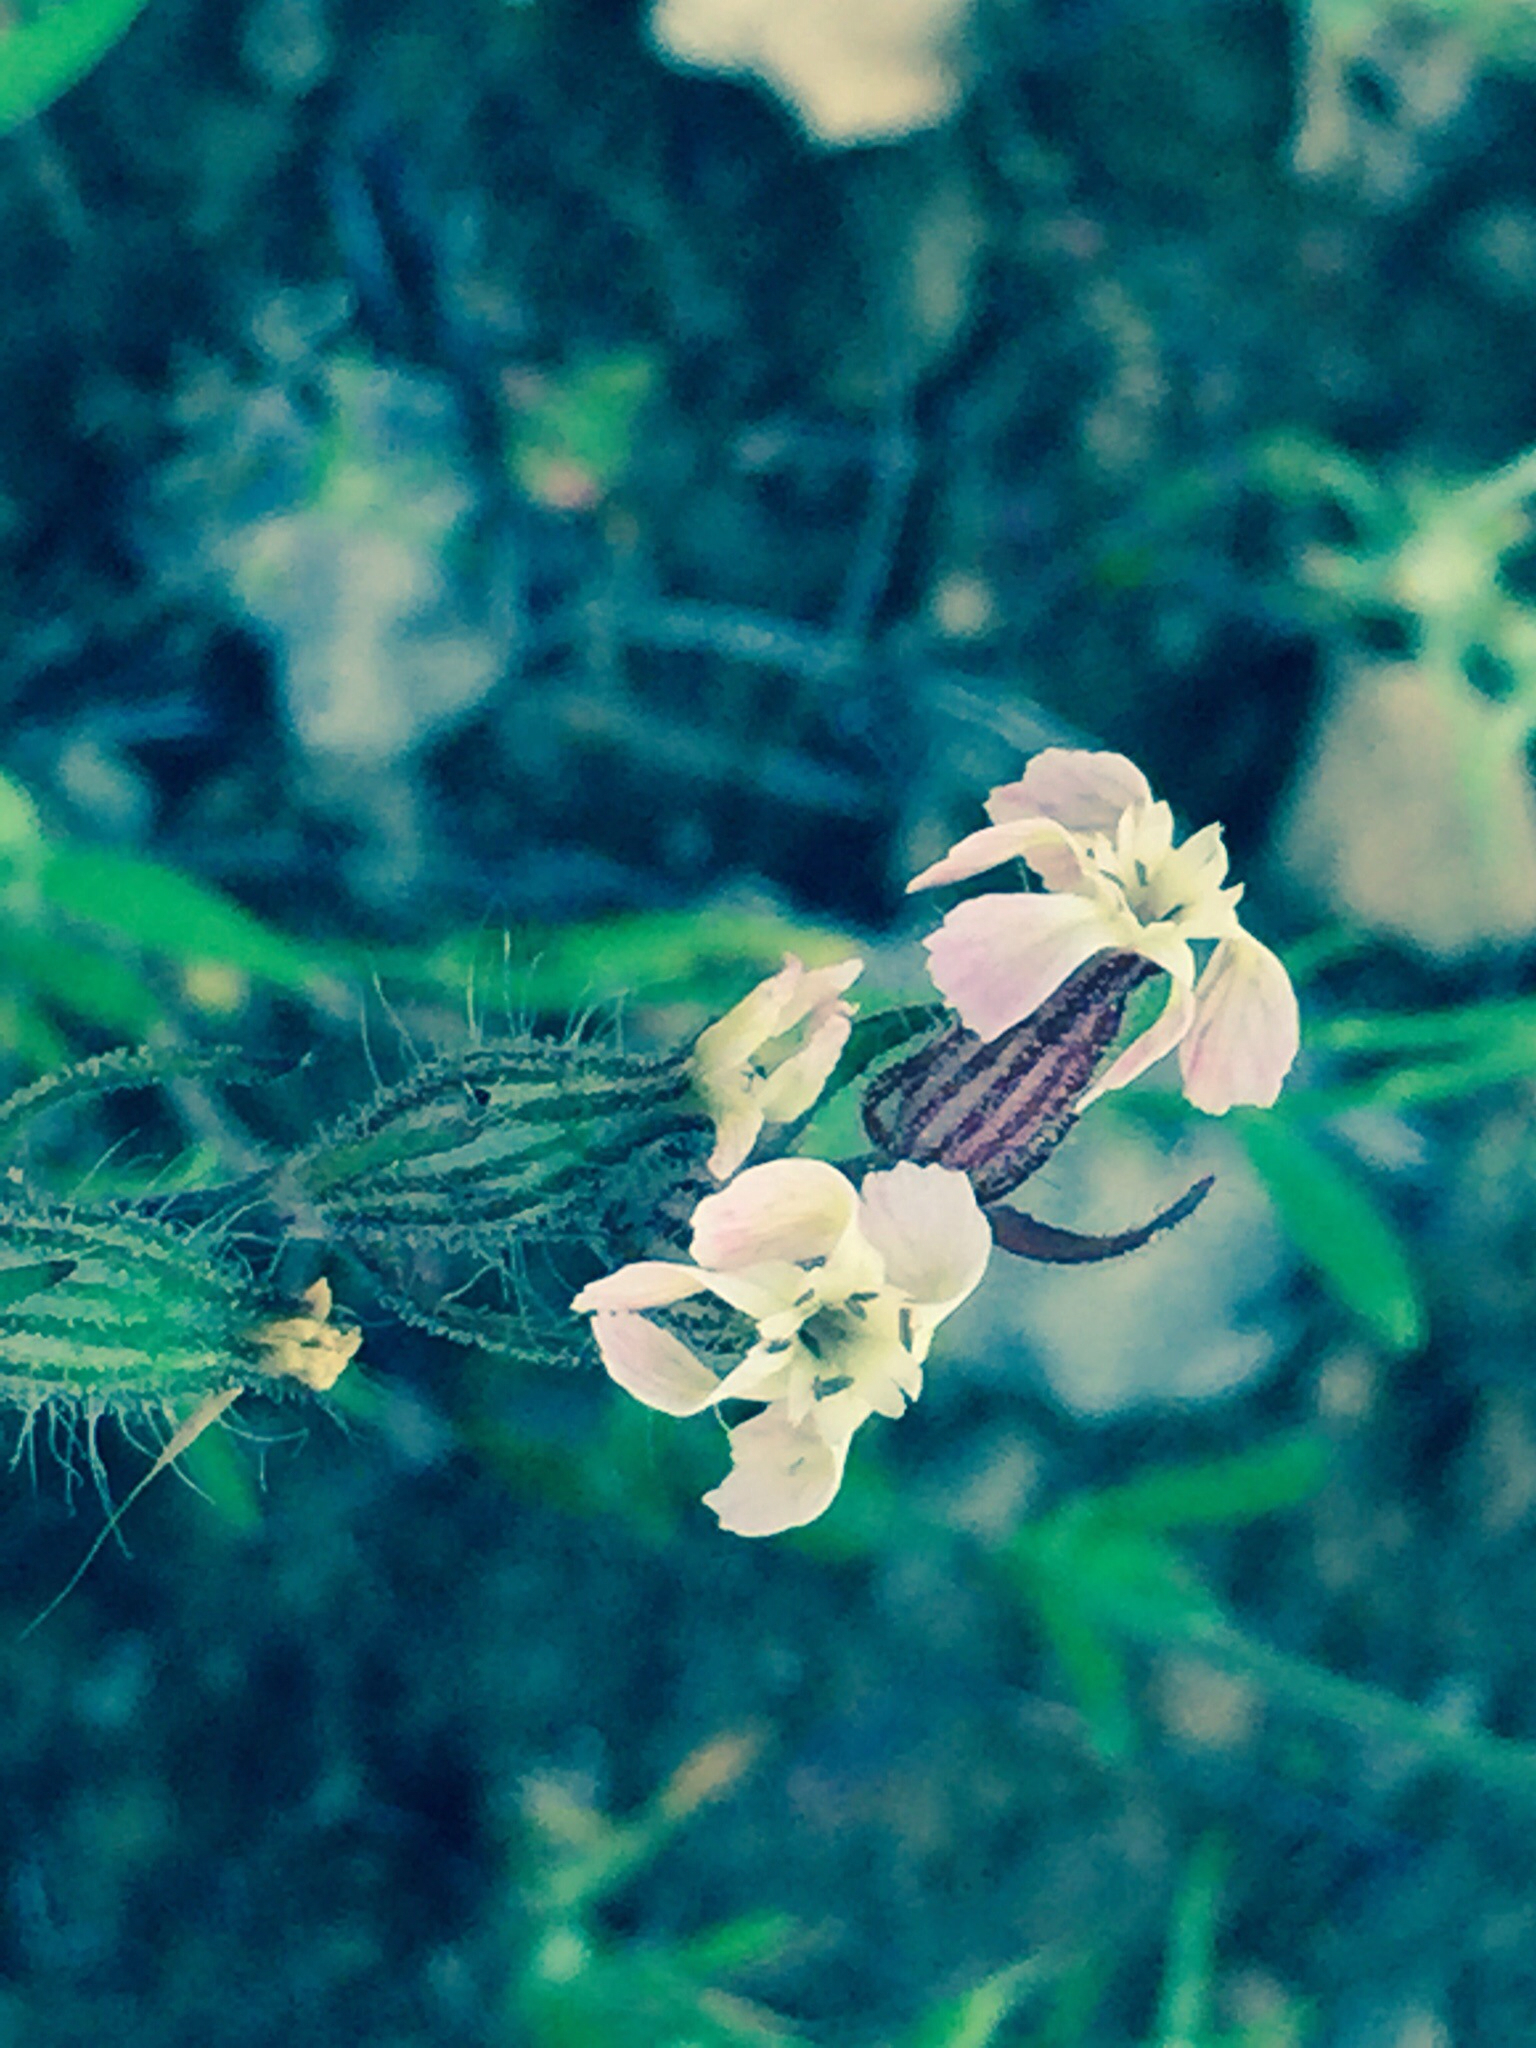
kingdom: Plantae
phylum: Tracheophyta
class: Magnoliopsida
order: Caryophyllales
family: Caryophyllaceae
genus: Silene
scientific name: Silene gallica
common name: Small-flowered catchfly
